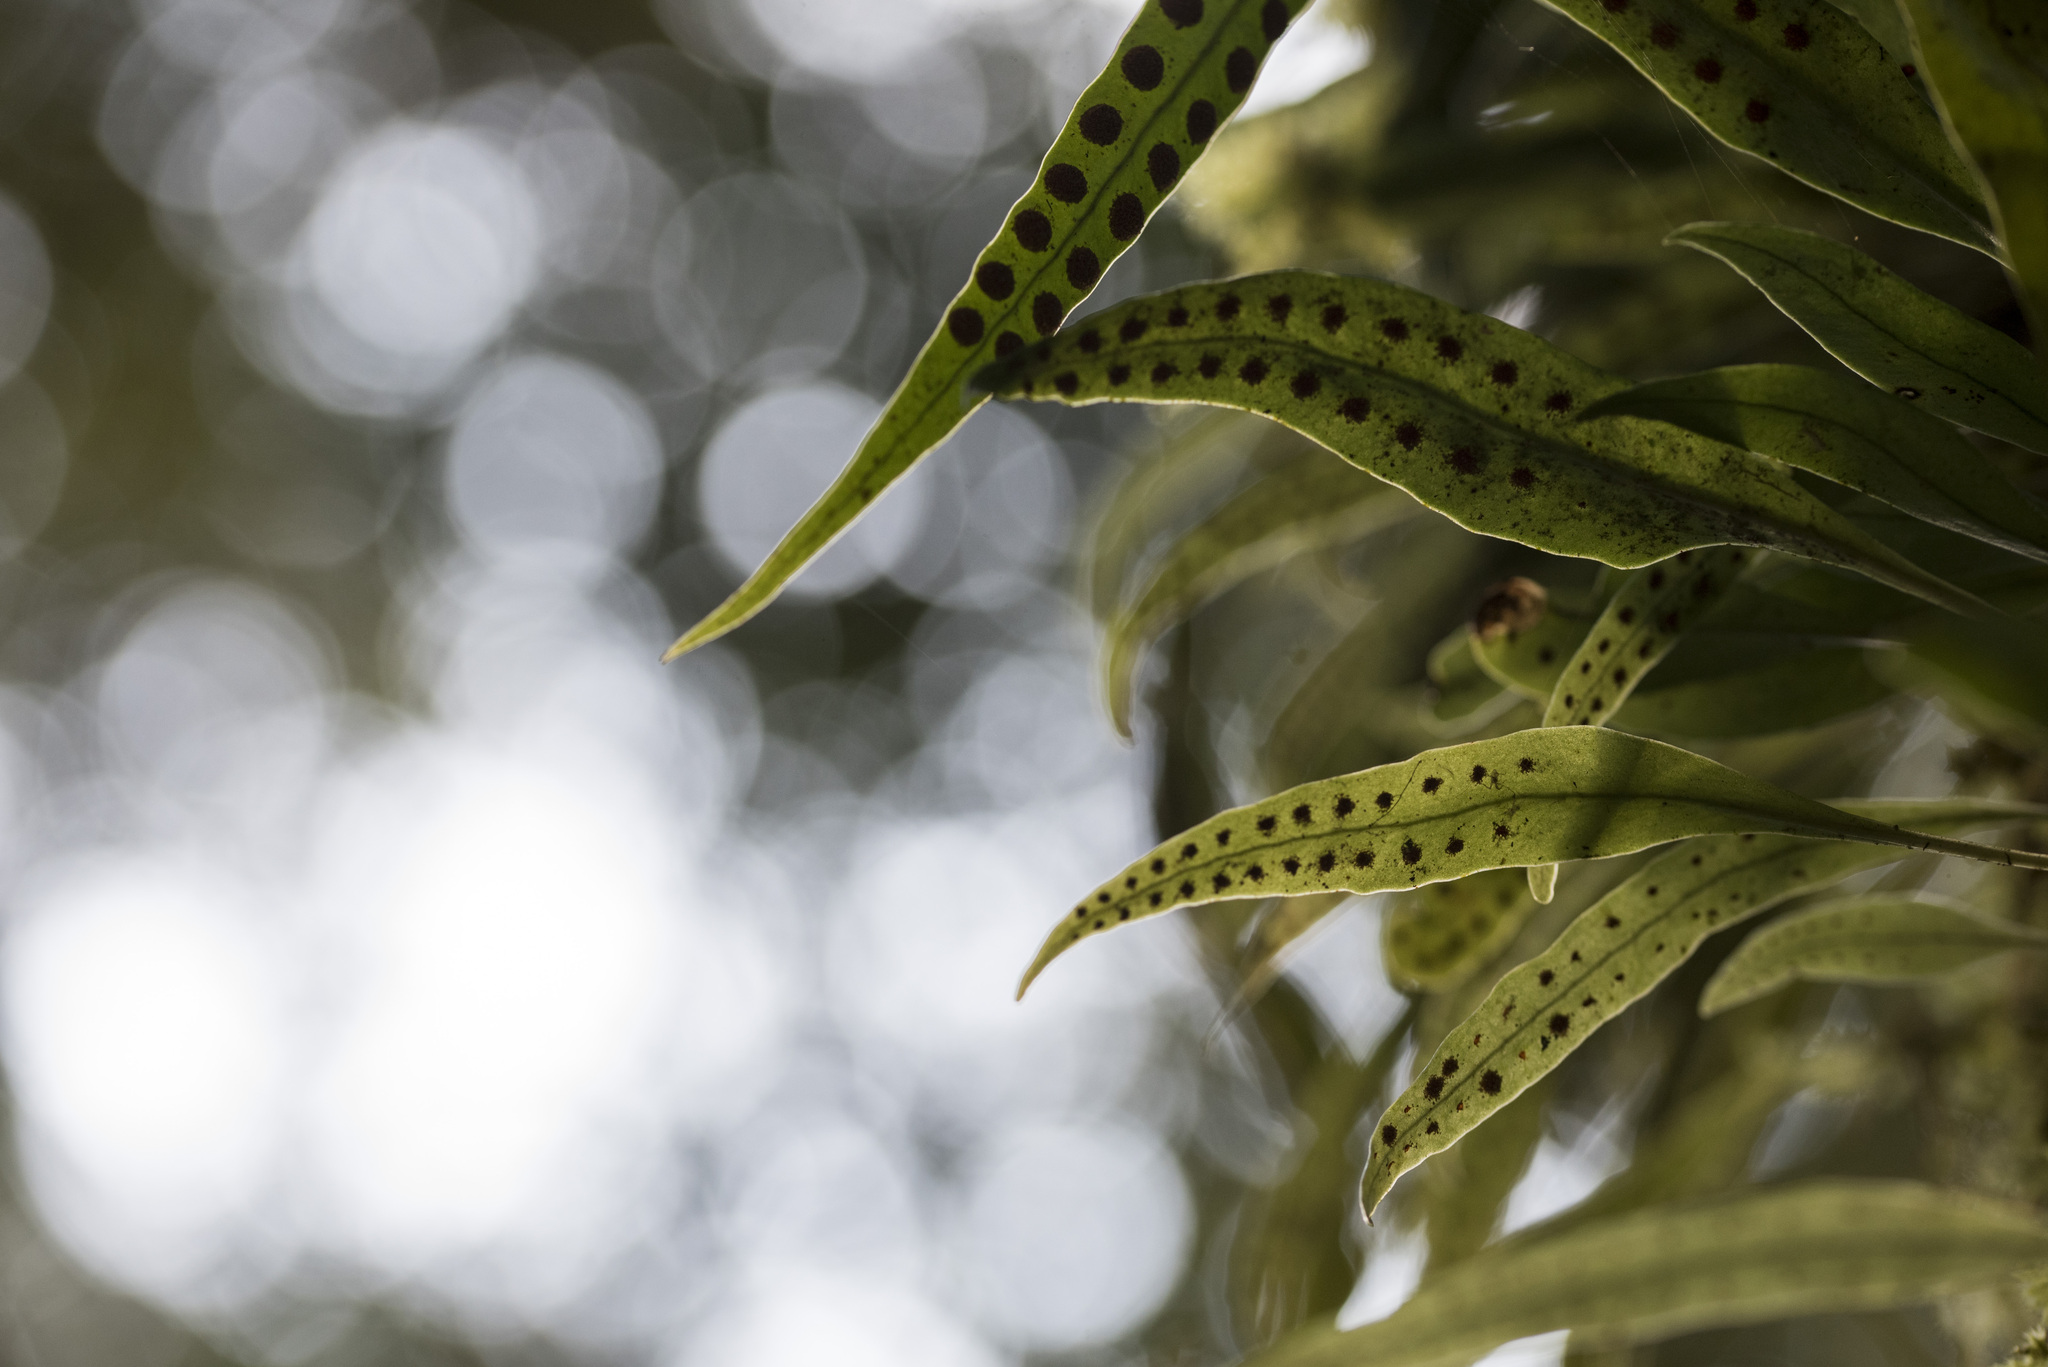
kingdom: Plantae
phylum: Tracheophyta
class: Polypodiopsida
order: Polypodiales
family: Polypodiaceae
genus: Lepisorus
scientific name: Lepisorus rostratus
